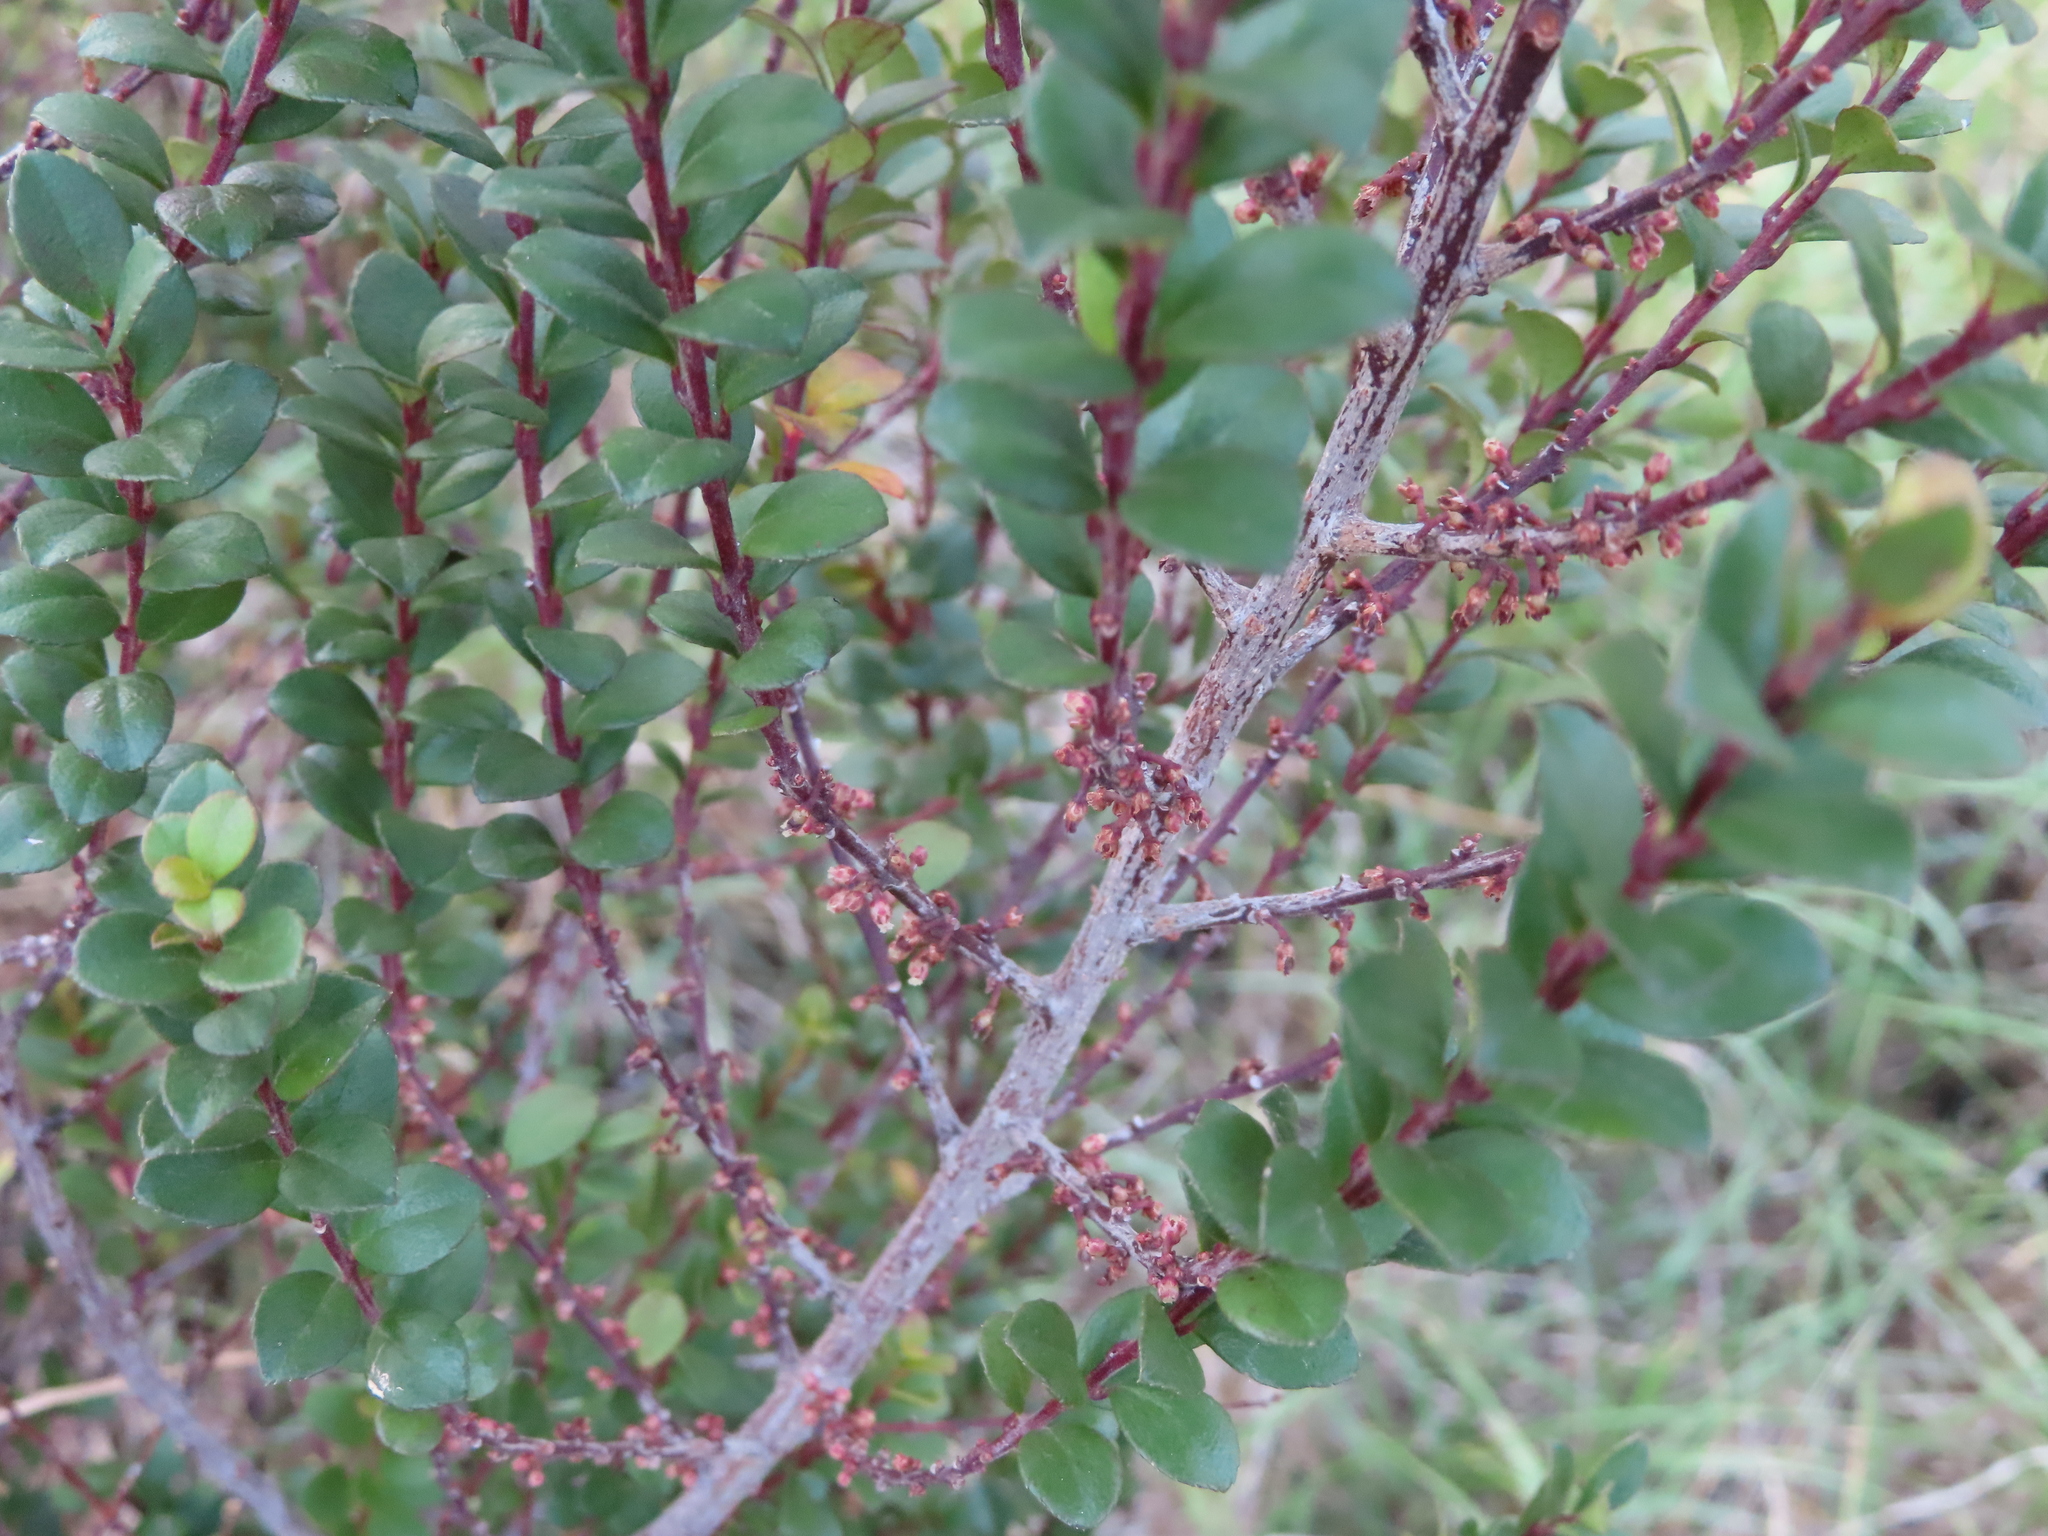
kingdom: Plantae
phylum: Tracheophyta
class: Magnoliopsida
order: Ericales
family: Primulaceae
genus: Myrsine
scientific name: Myrsine africana
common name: African-boxwood
